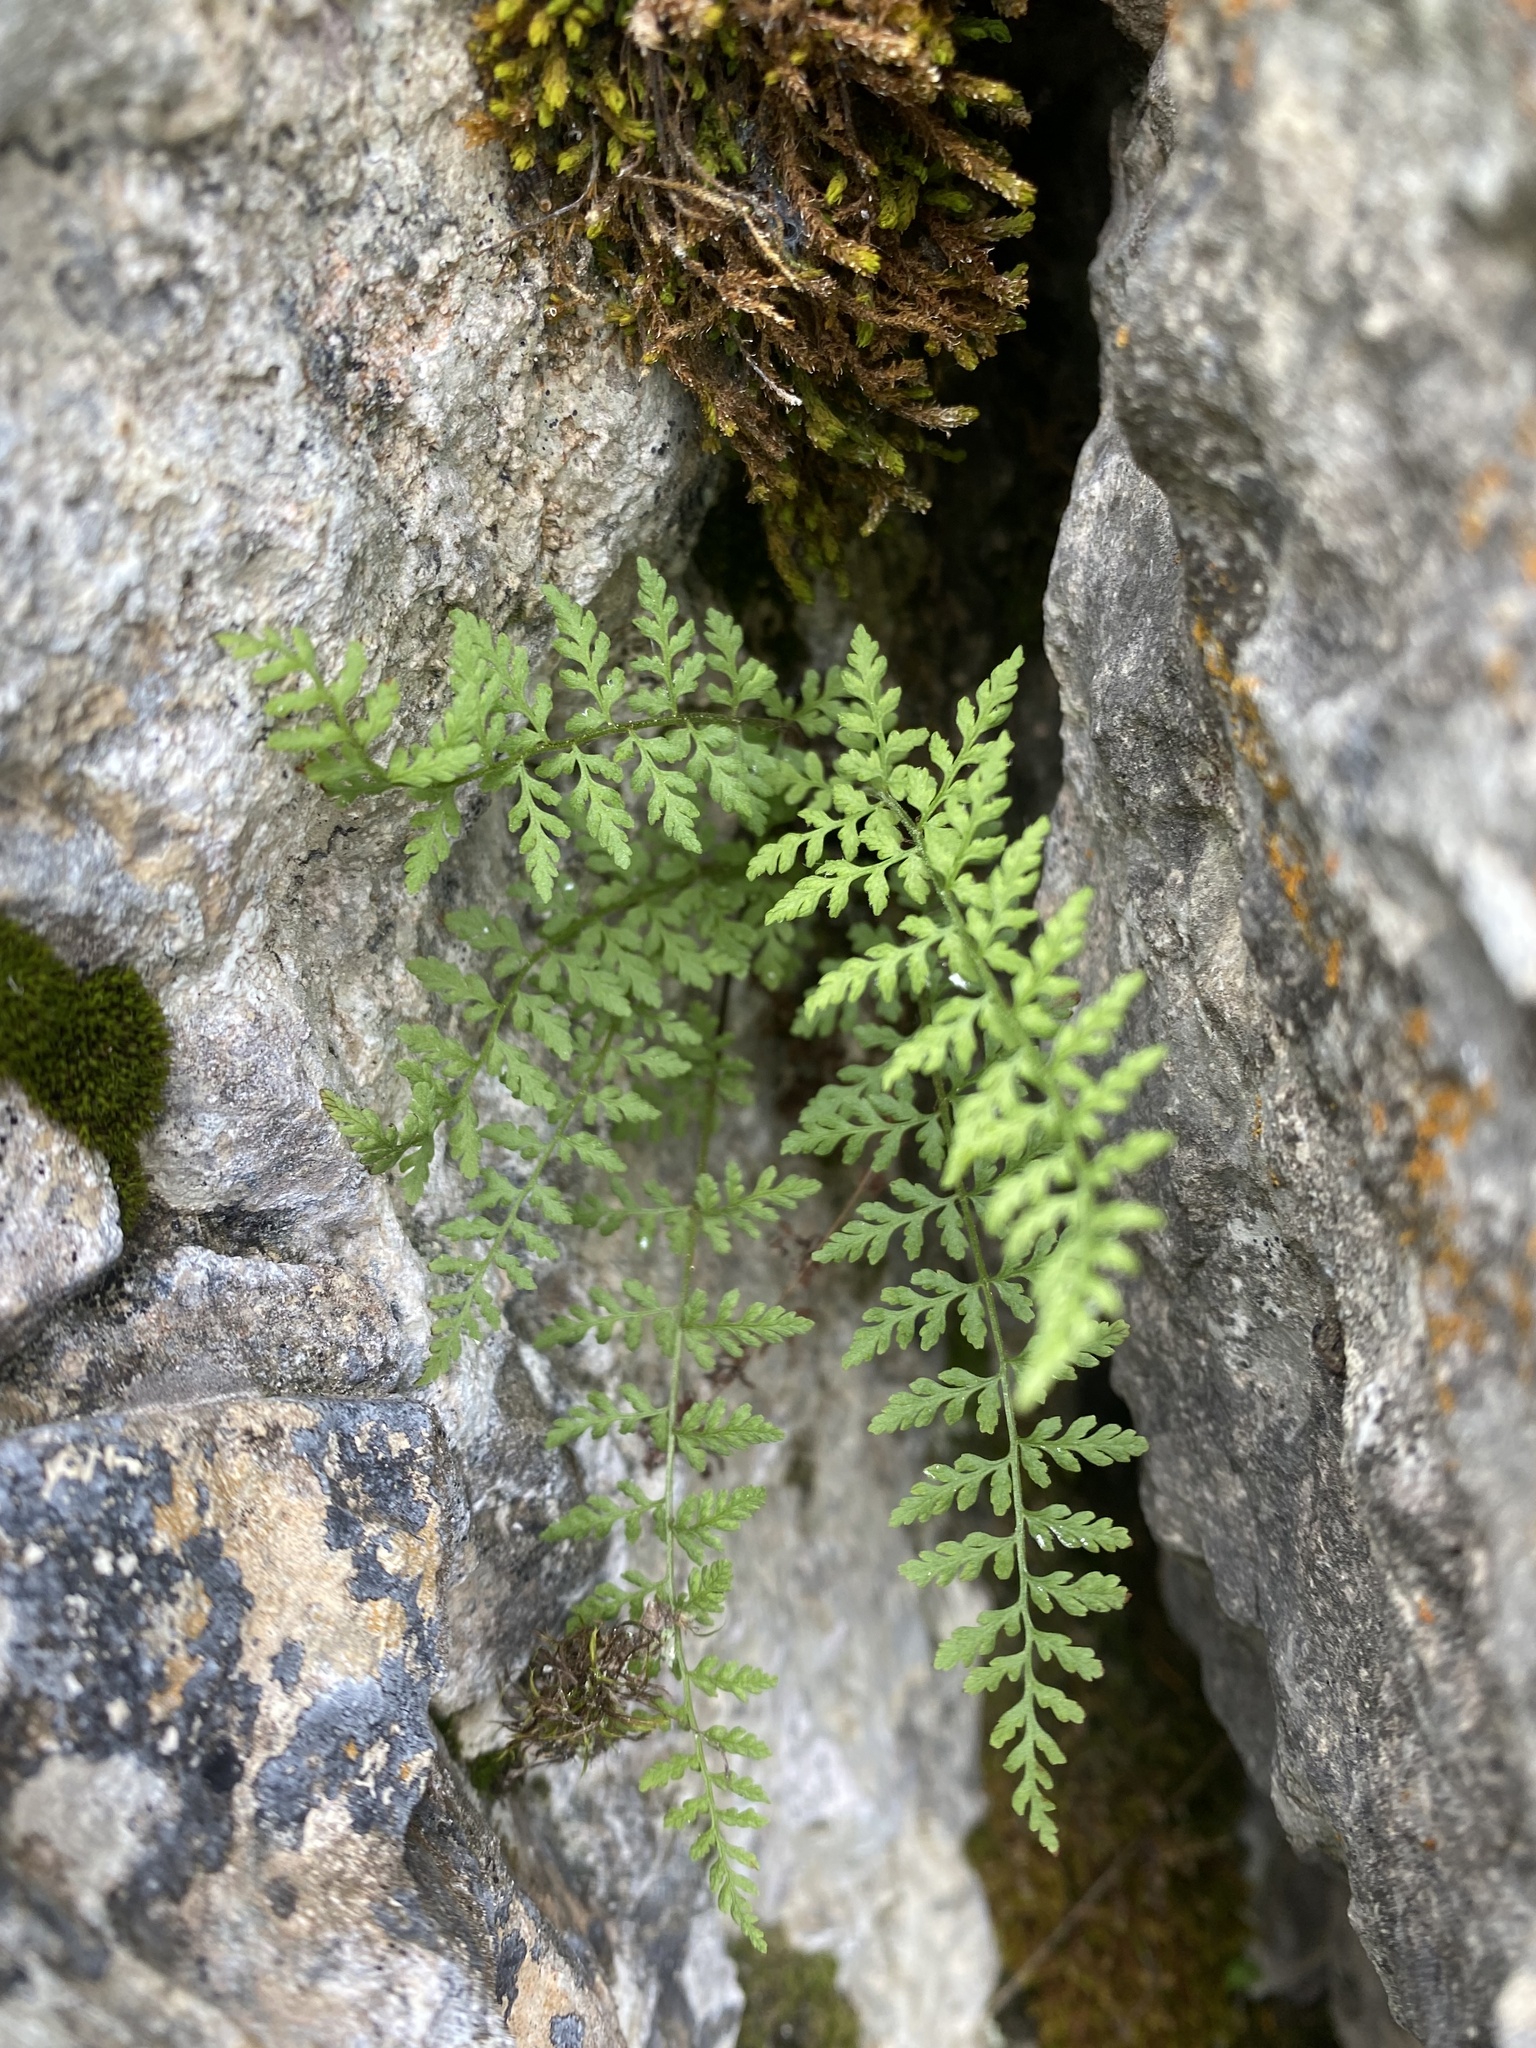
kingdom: Plantae
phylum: Tracheophyta
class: Polypodiopsida
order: Polypodiales
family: Cystopteridaceae
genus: Cystopteris
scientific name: Cystopteris fragilis
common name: Brittle bladder fern
